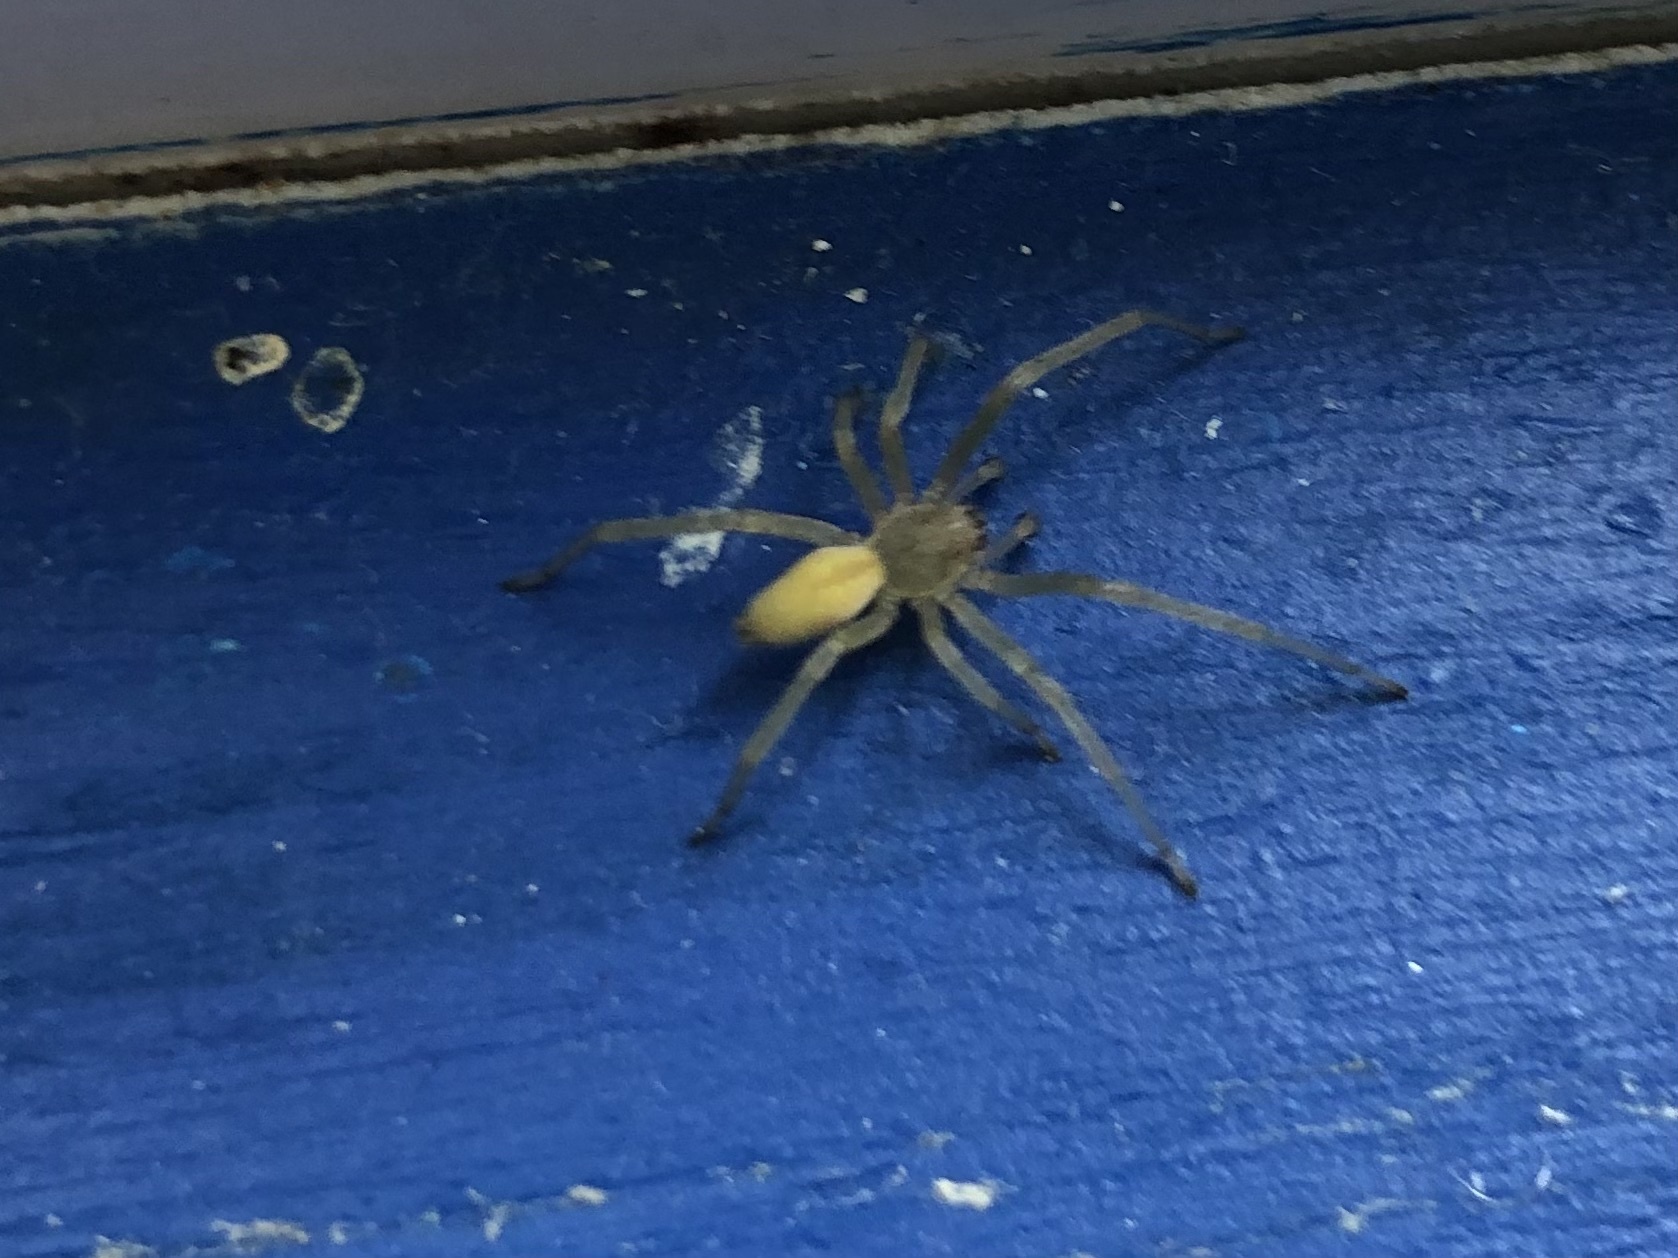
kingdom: Animalia
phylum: Arthropoda
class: Arachnida
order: Araneae
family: Cheiracanthiidae
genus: Cheiracanthium
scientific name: Cheiracanthium mildei
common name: Northern yellow sac spider
